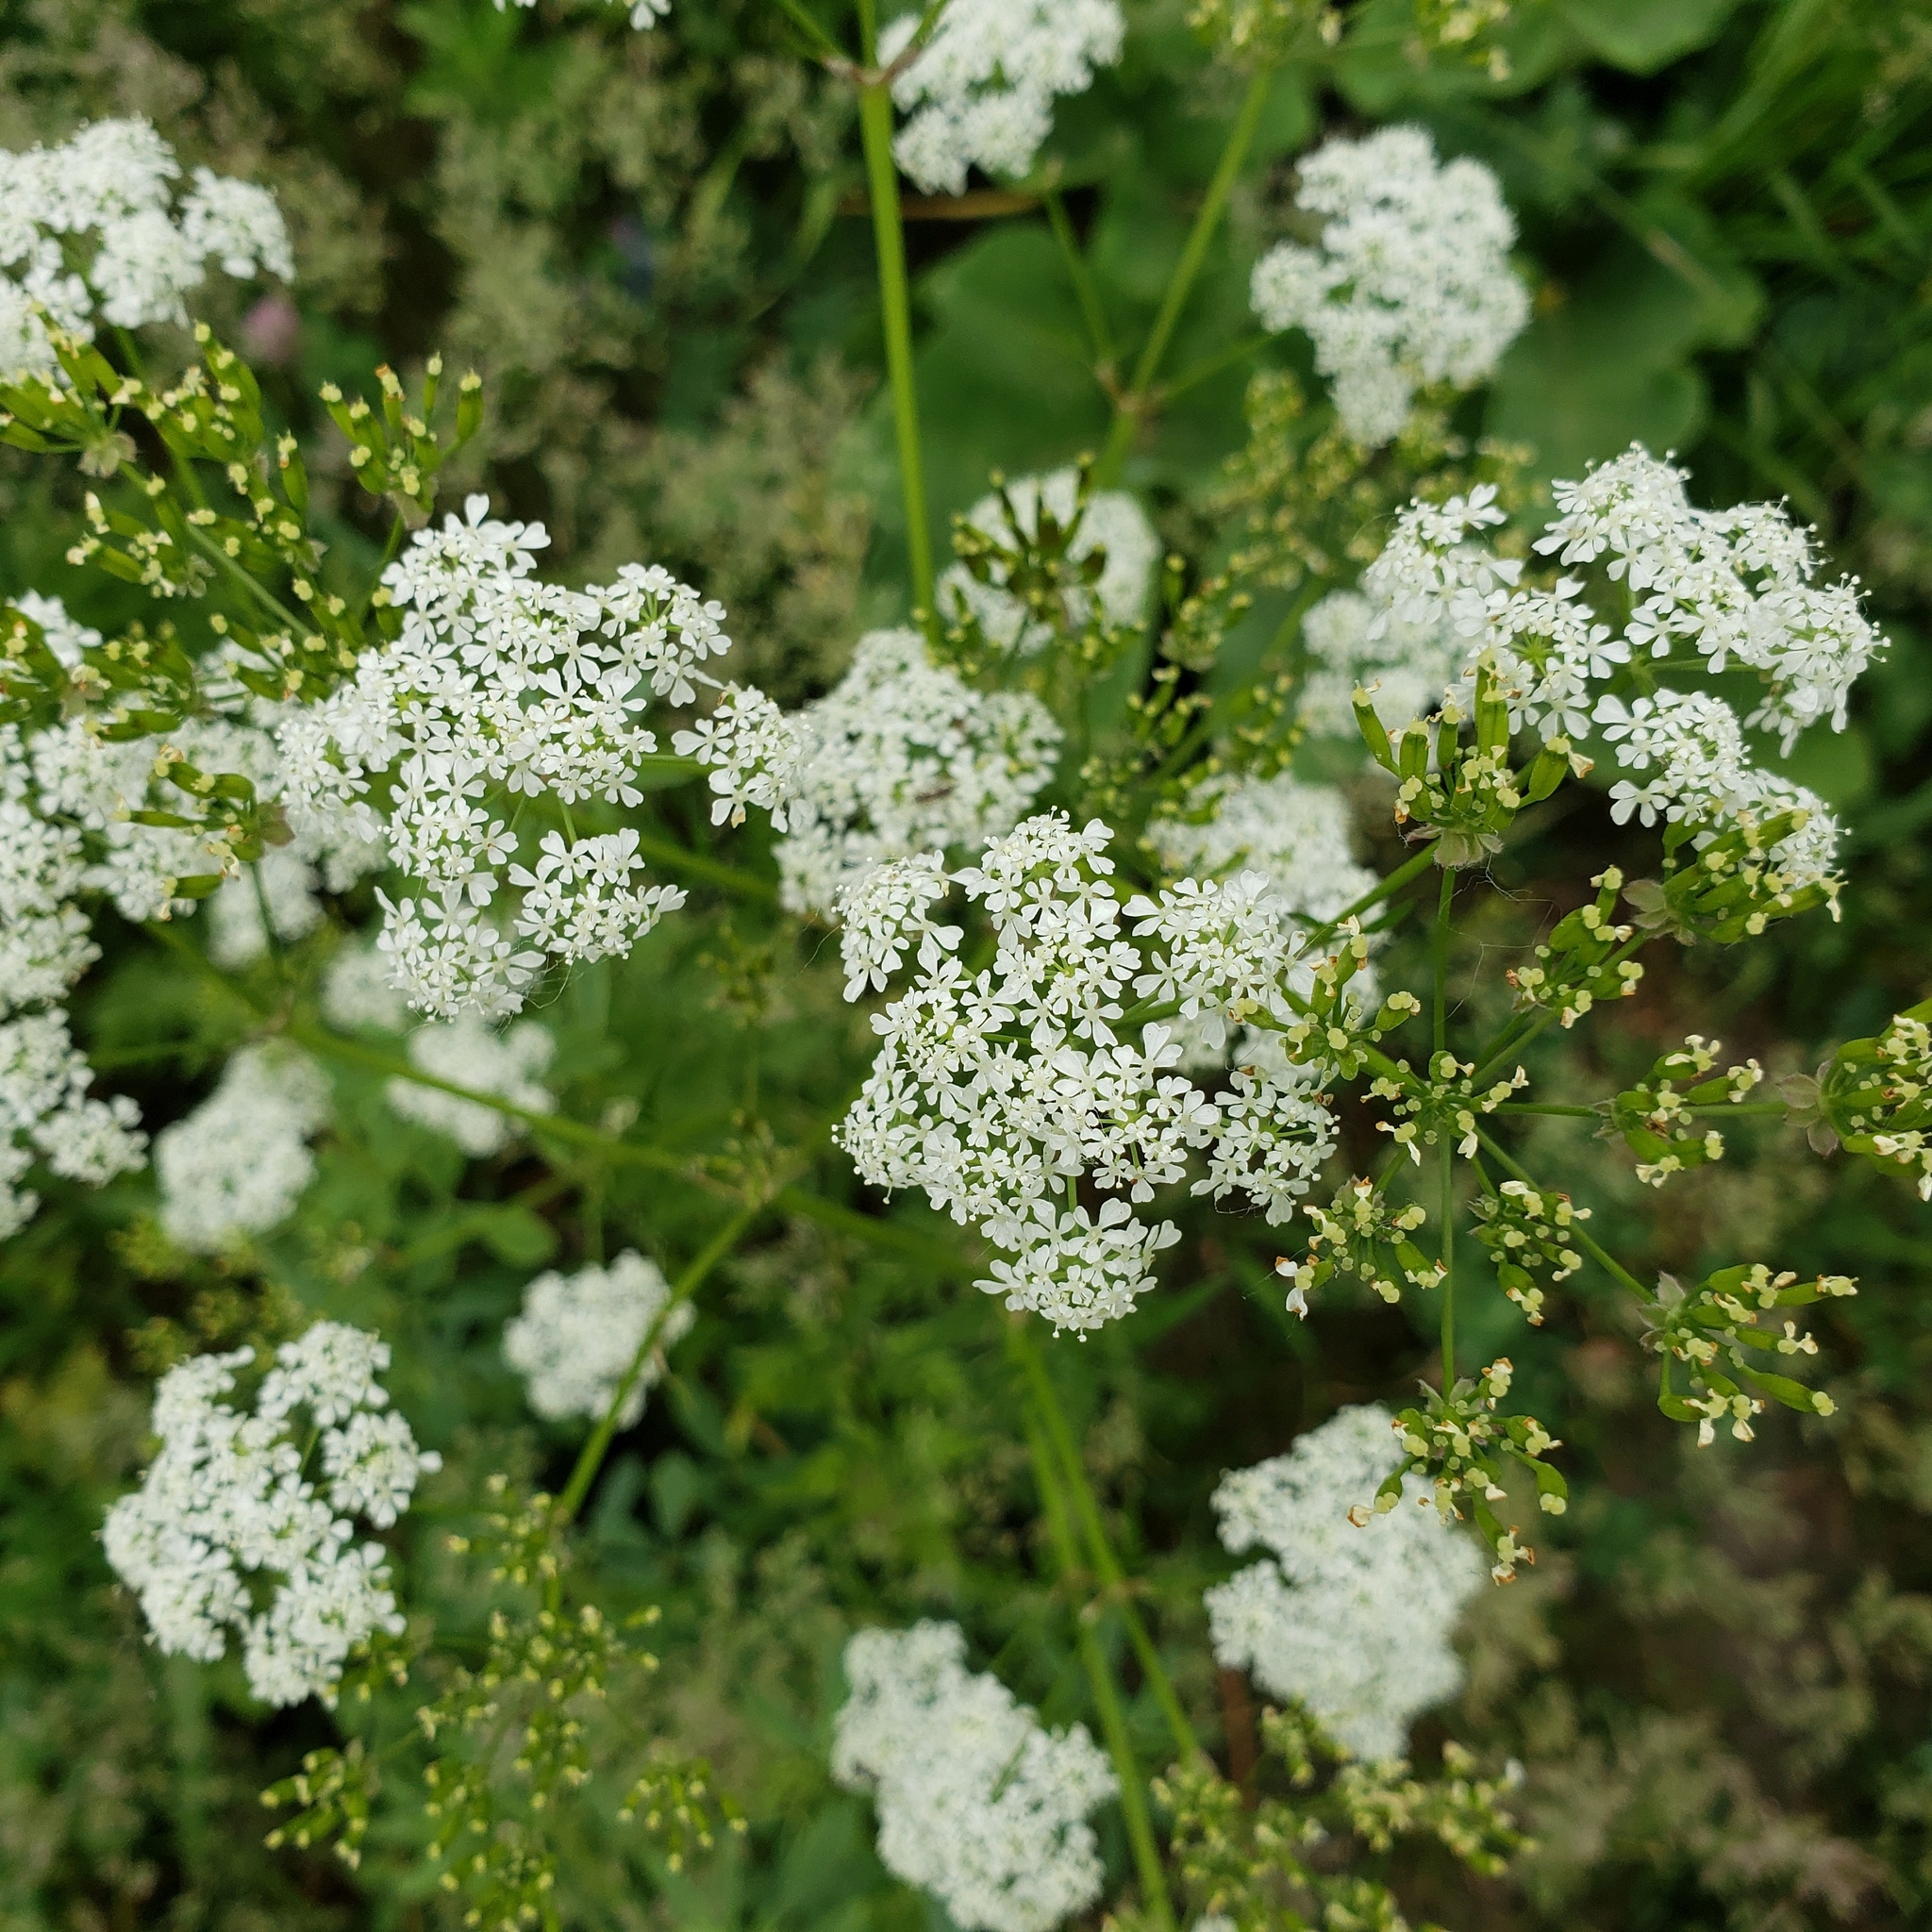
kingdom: Plantae
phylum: Tracheophyta
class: Magnoliopsida
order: Apiales
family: Apiaceae
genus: Daucus
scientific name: Daucus carota
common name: Wild carrot
